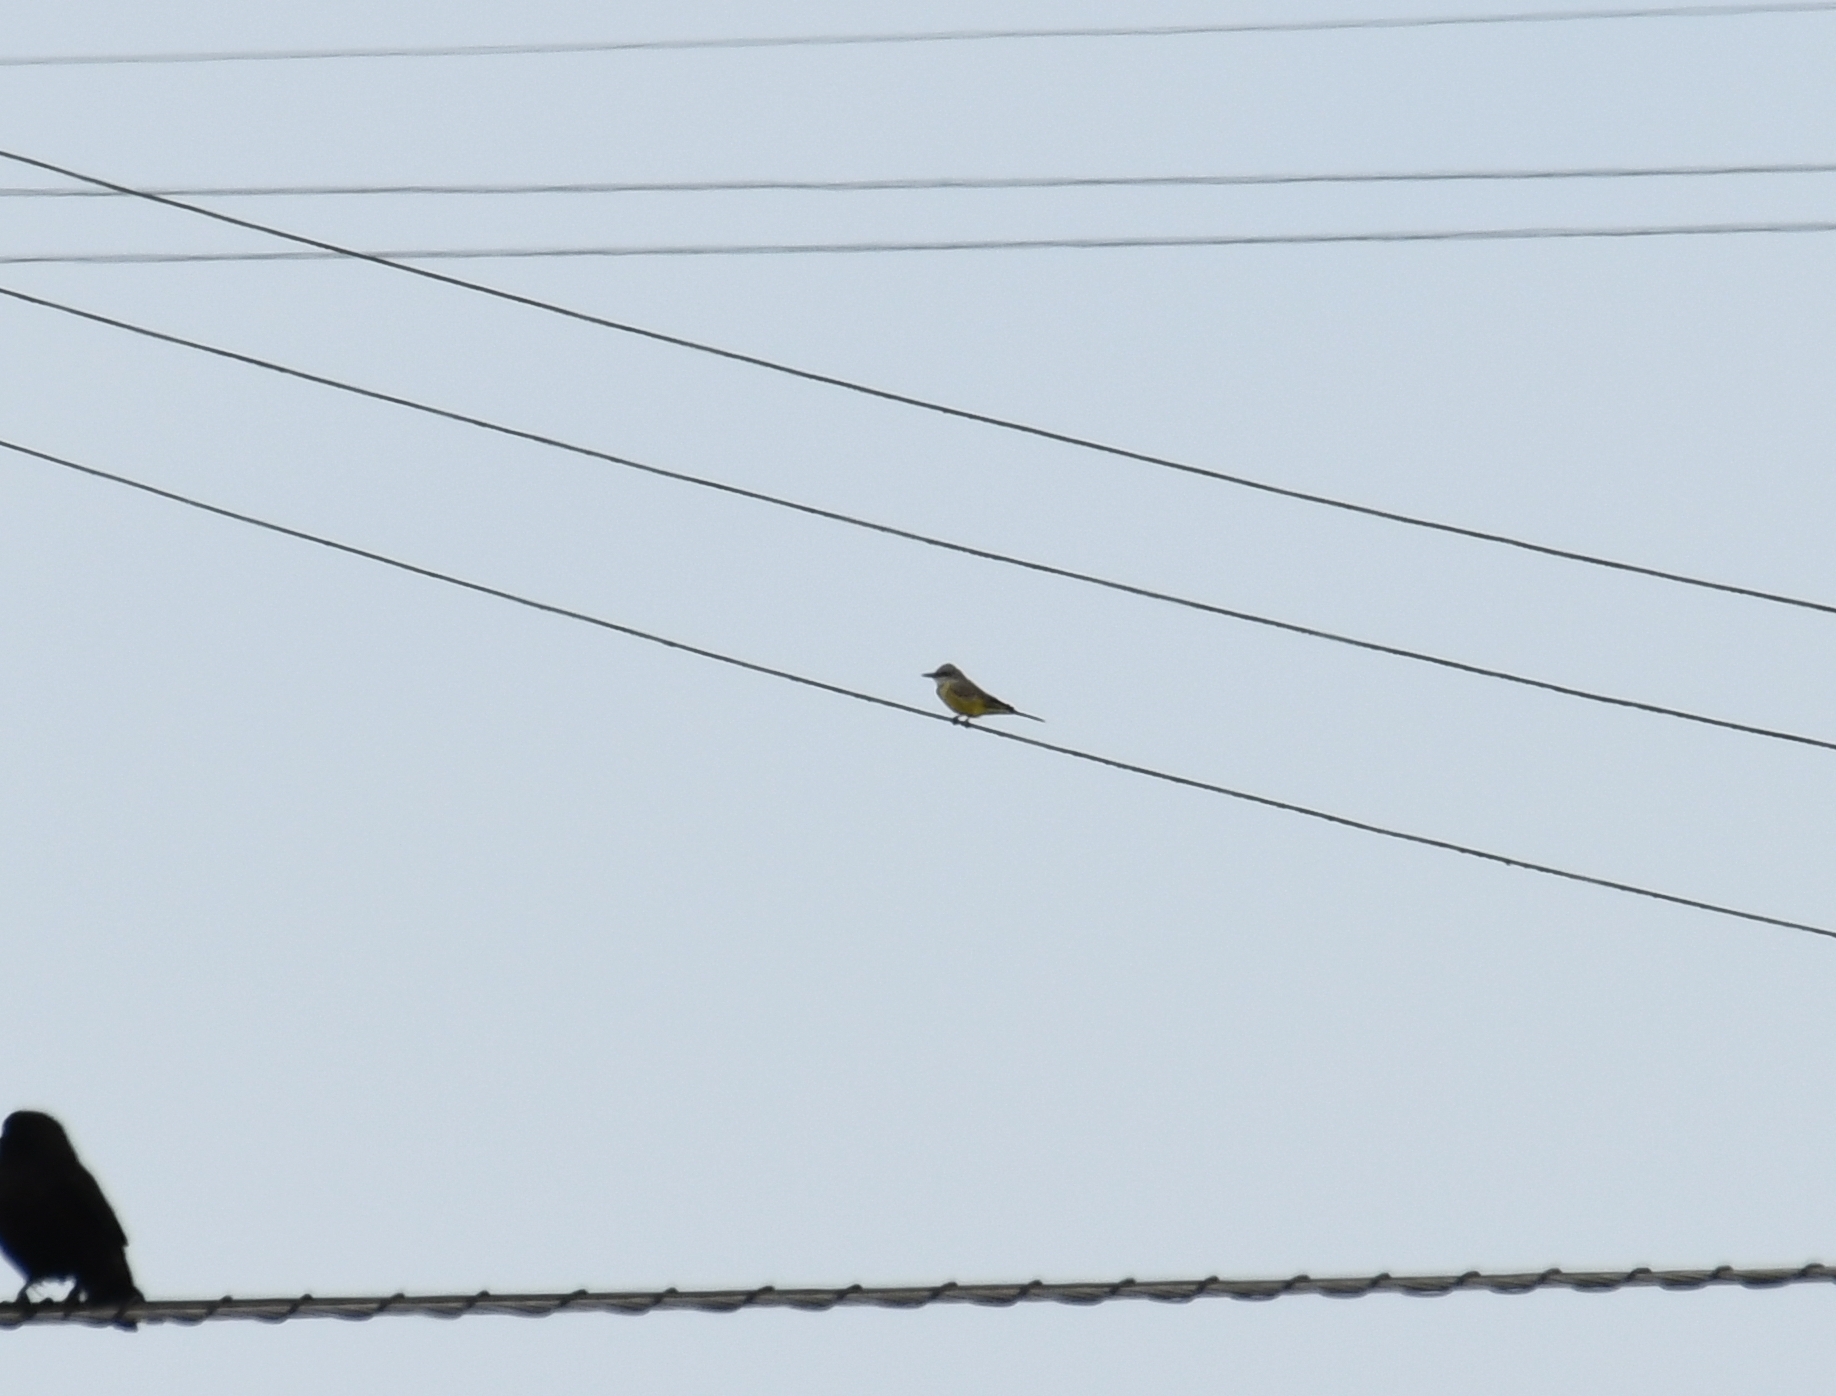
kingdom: Animalia
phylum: Chordata
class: Aves
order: Passeriformes
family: Tyrannidae
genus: Tyrannus
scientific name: Tyrannus melancholicus
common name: Tropical kingbird
